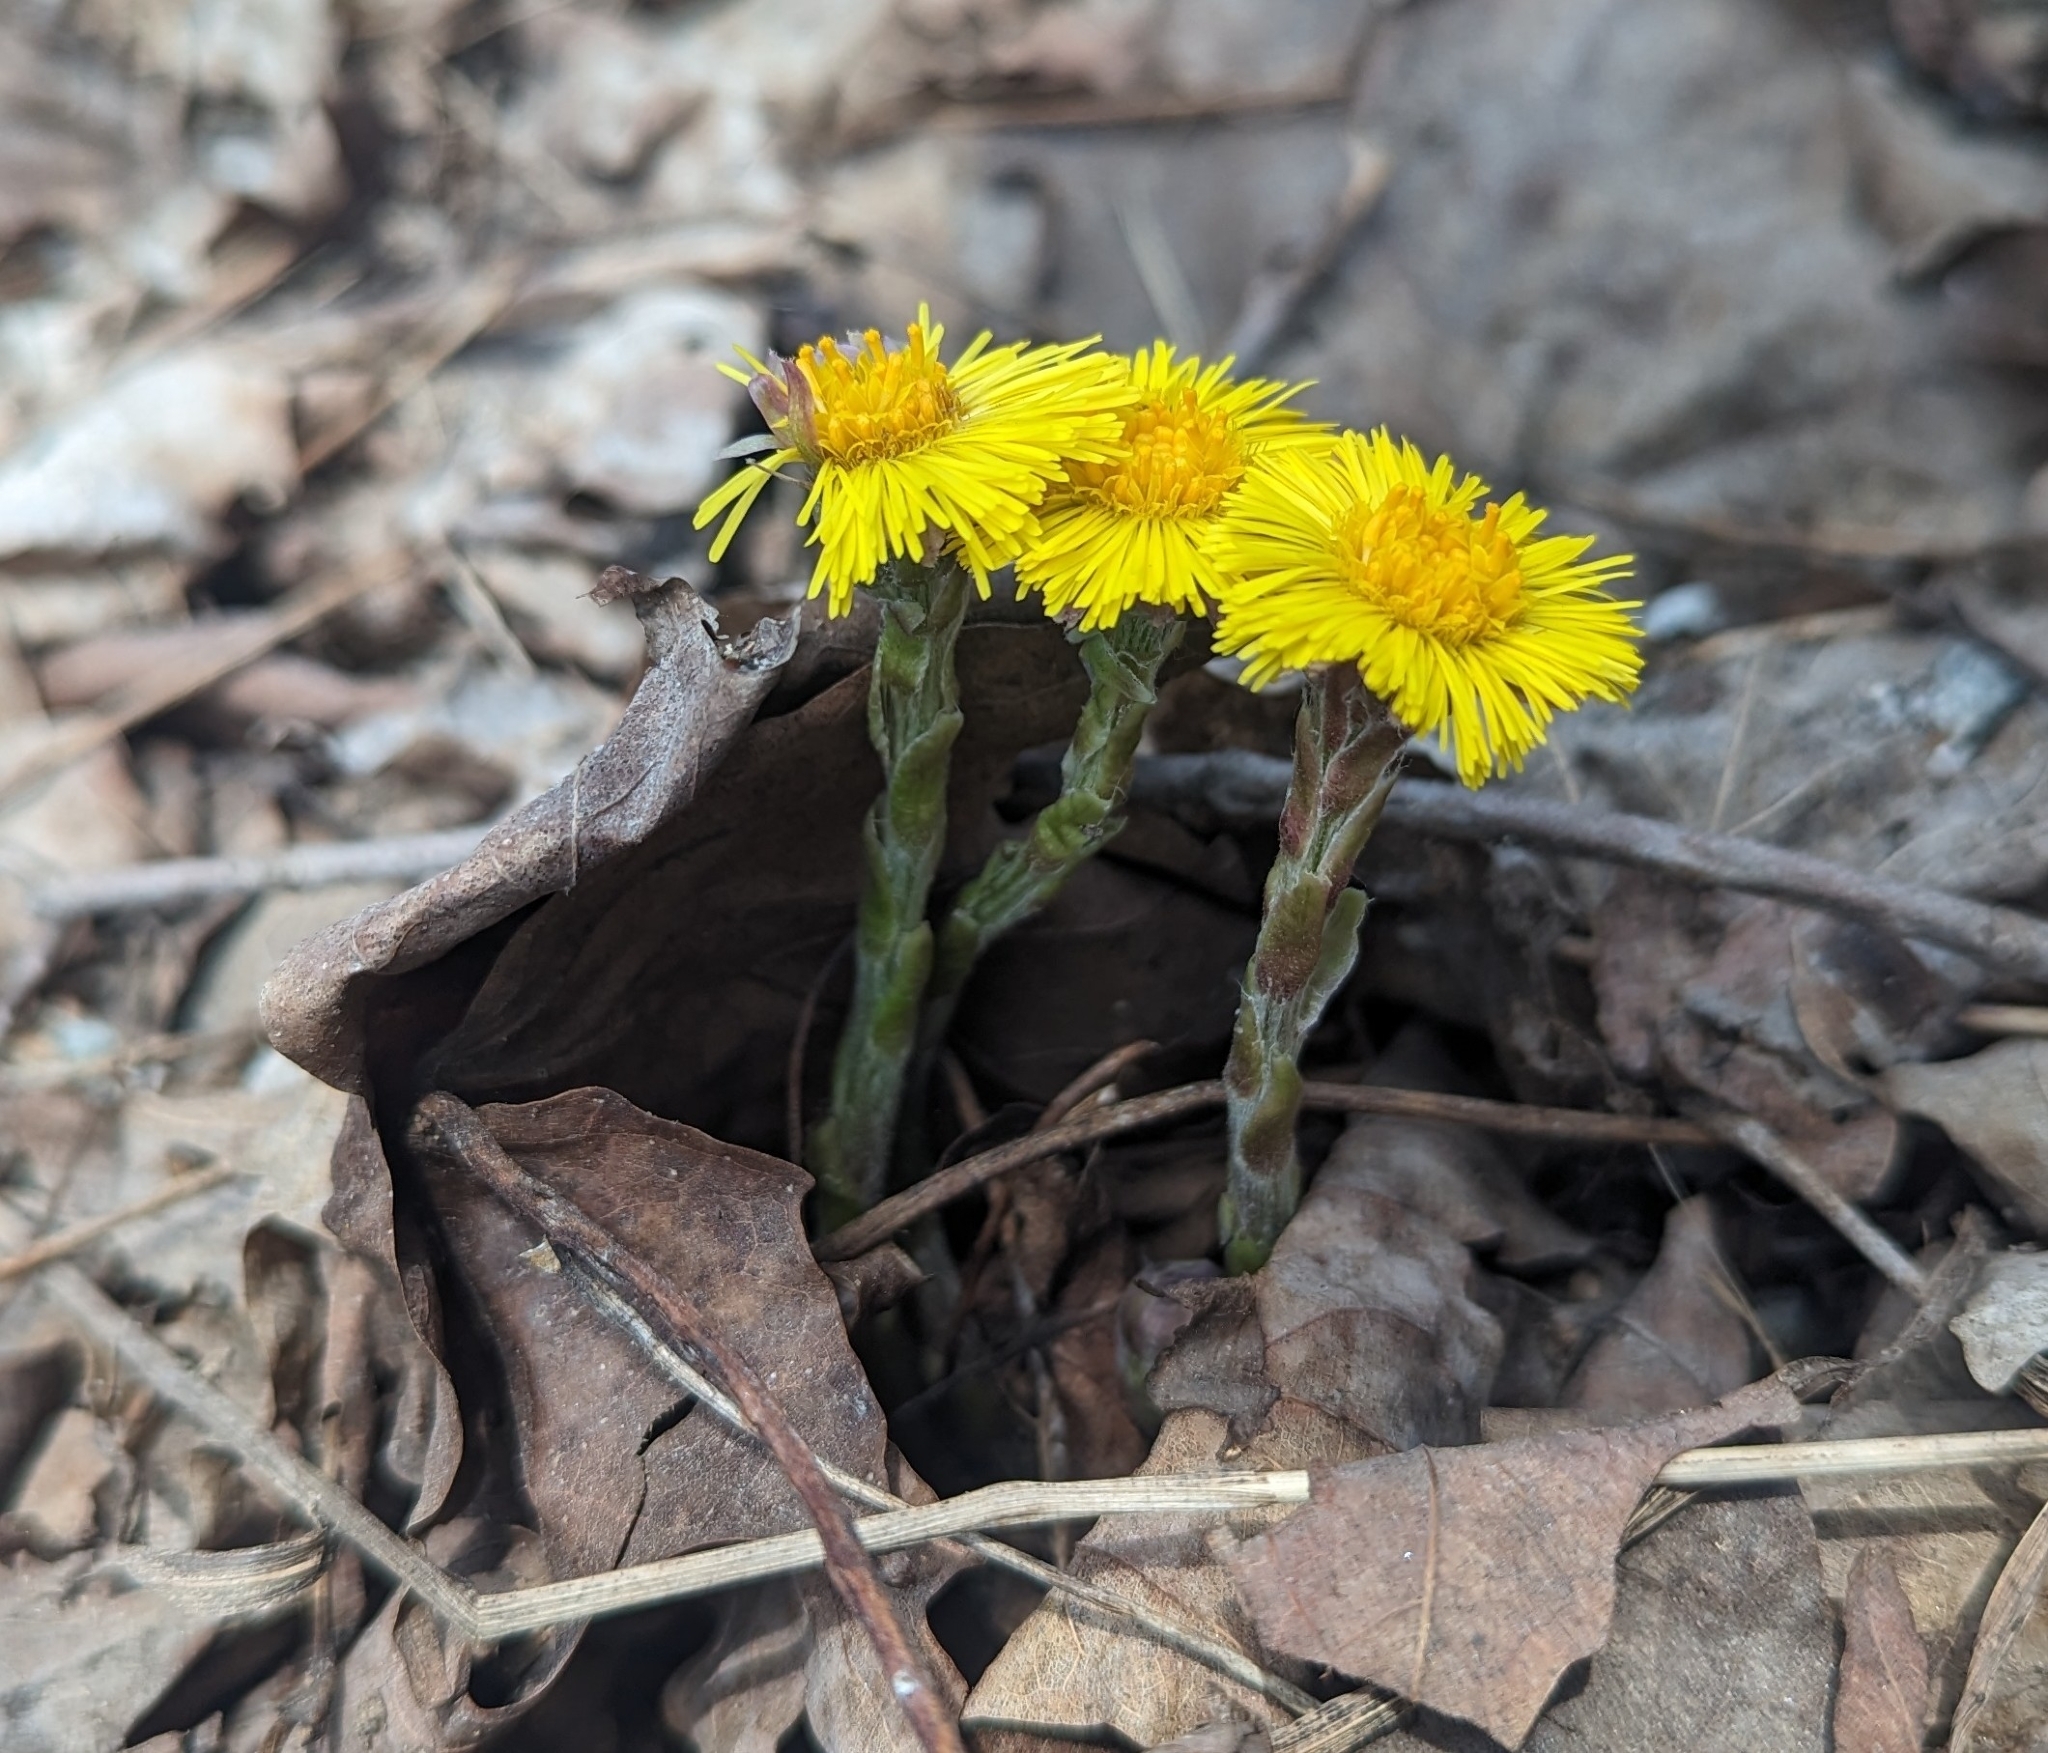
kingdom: Plantae
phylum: Tracheophyta
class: Magnoliopsida
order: Asterales
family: Asteraceae
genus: Tussilago
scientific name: Tussilago farfara
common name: Coltsfoot
